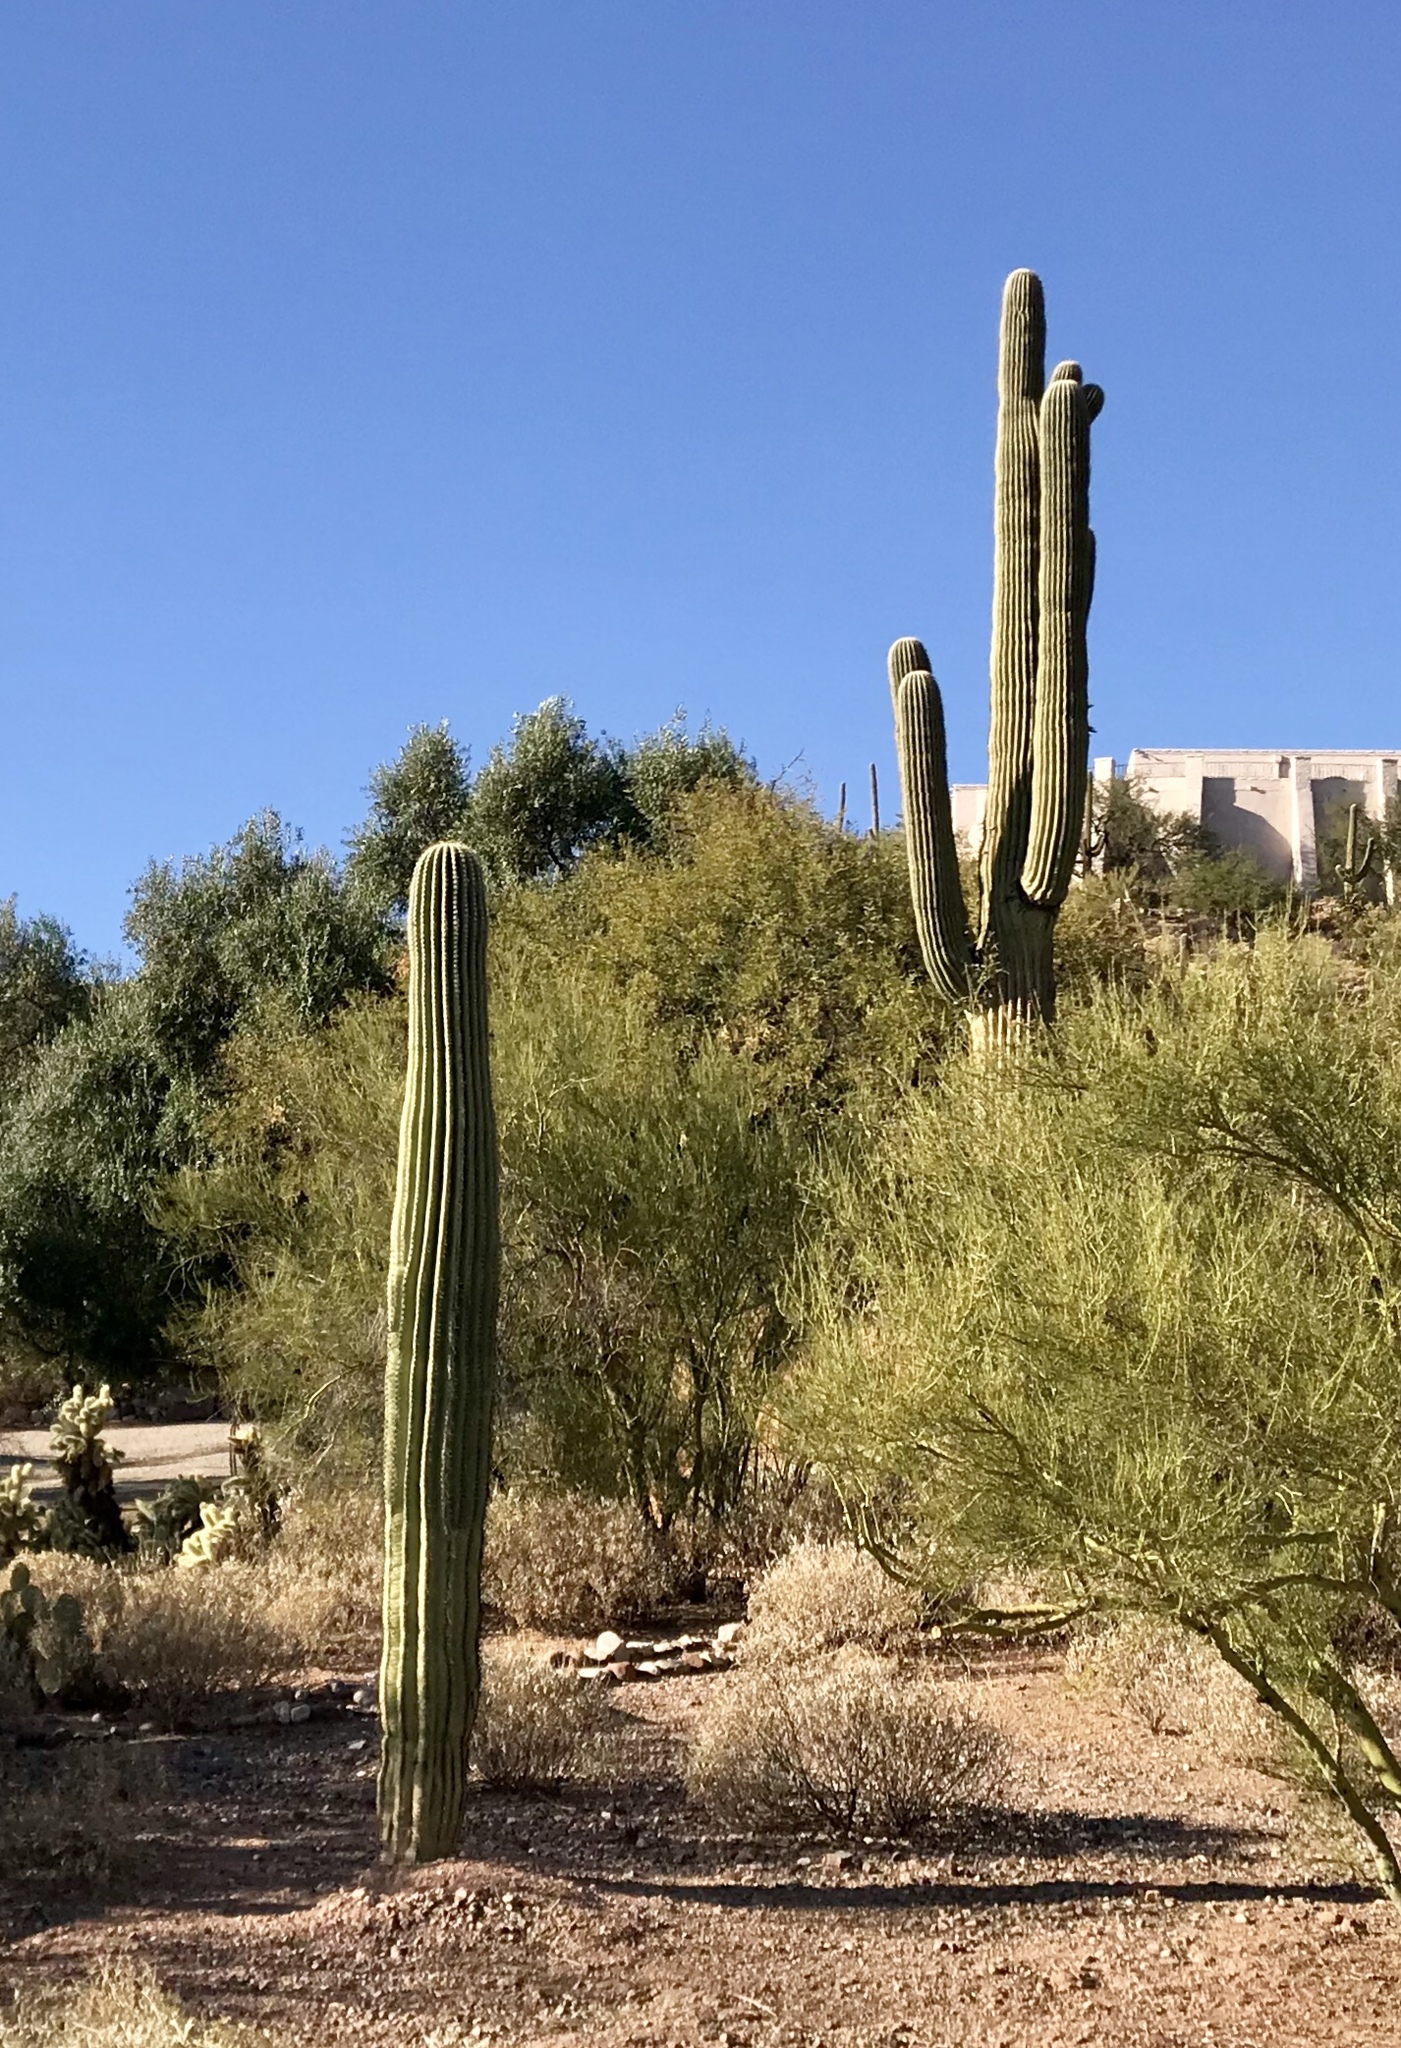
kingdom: Plantae
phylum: Tracheophyta
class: Magnoliopsida
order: Caryophyllales
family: Cactaceae
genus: Carnegiea
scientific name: Carnegiea gigantea
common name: Saguaro
